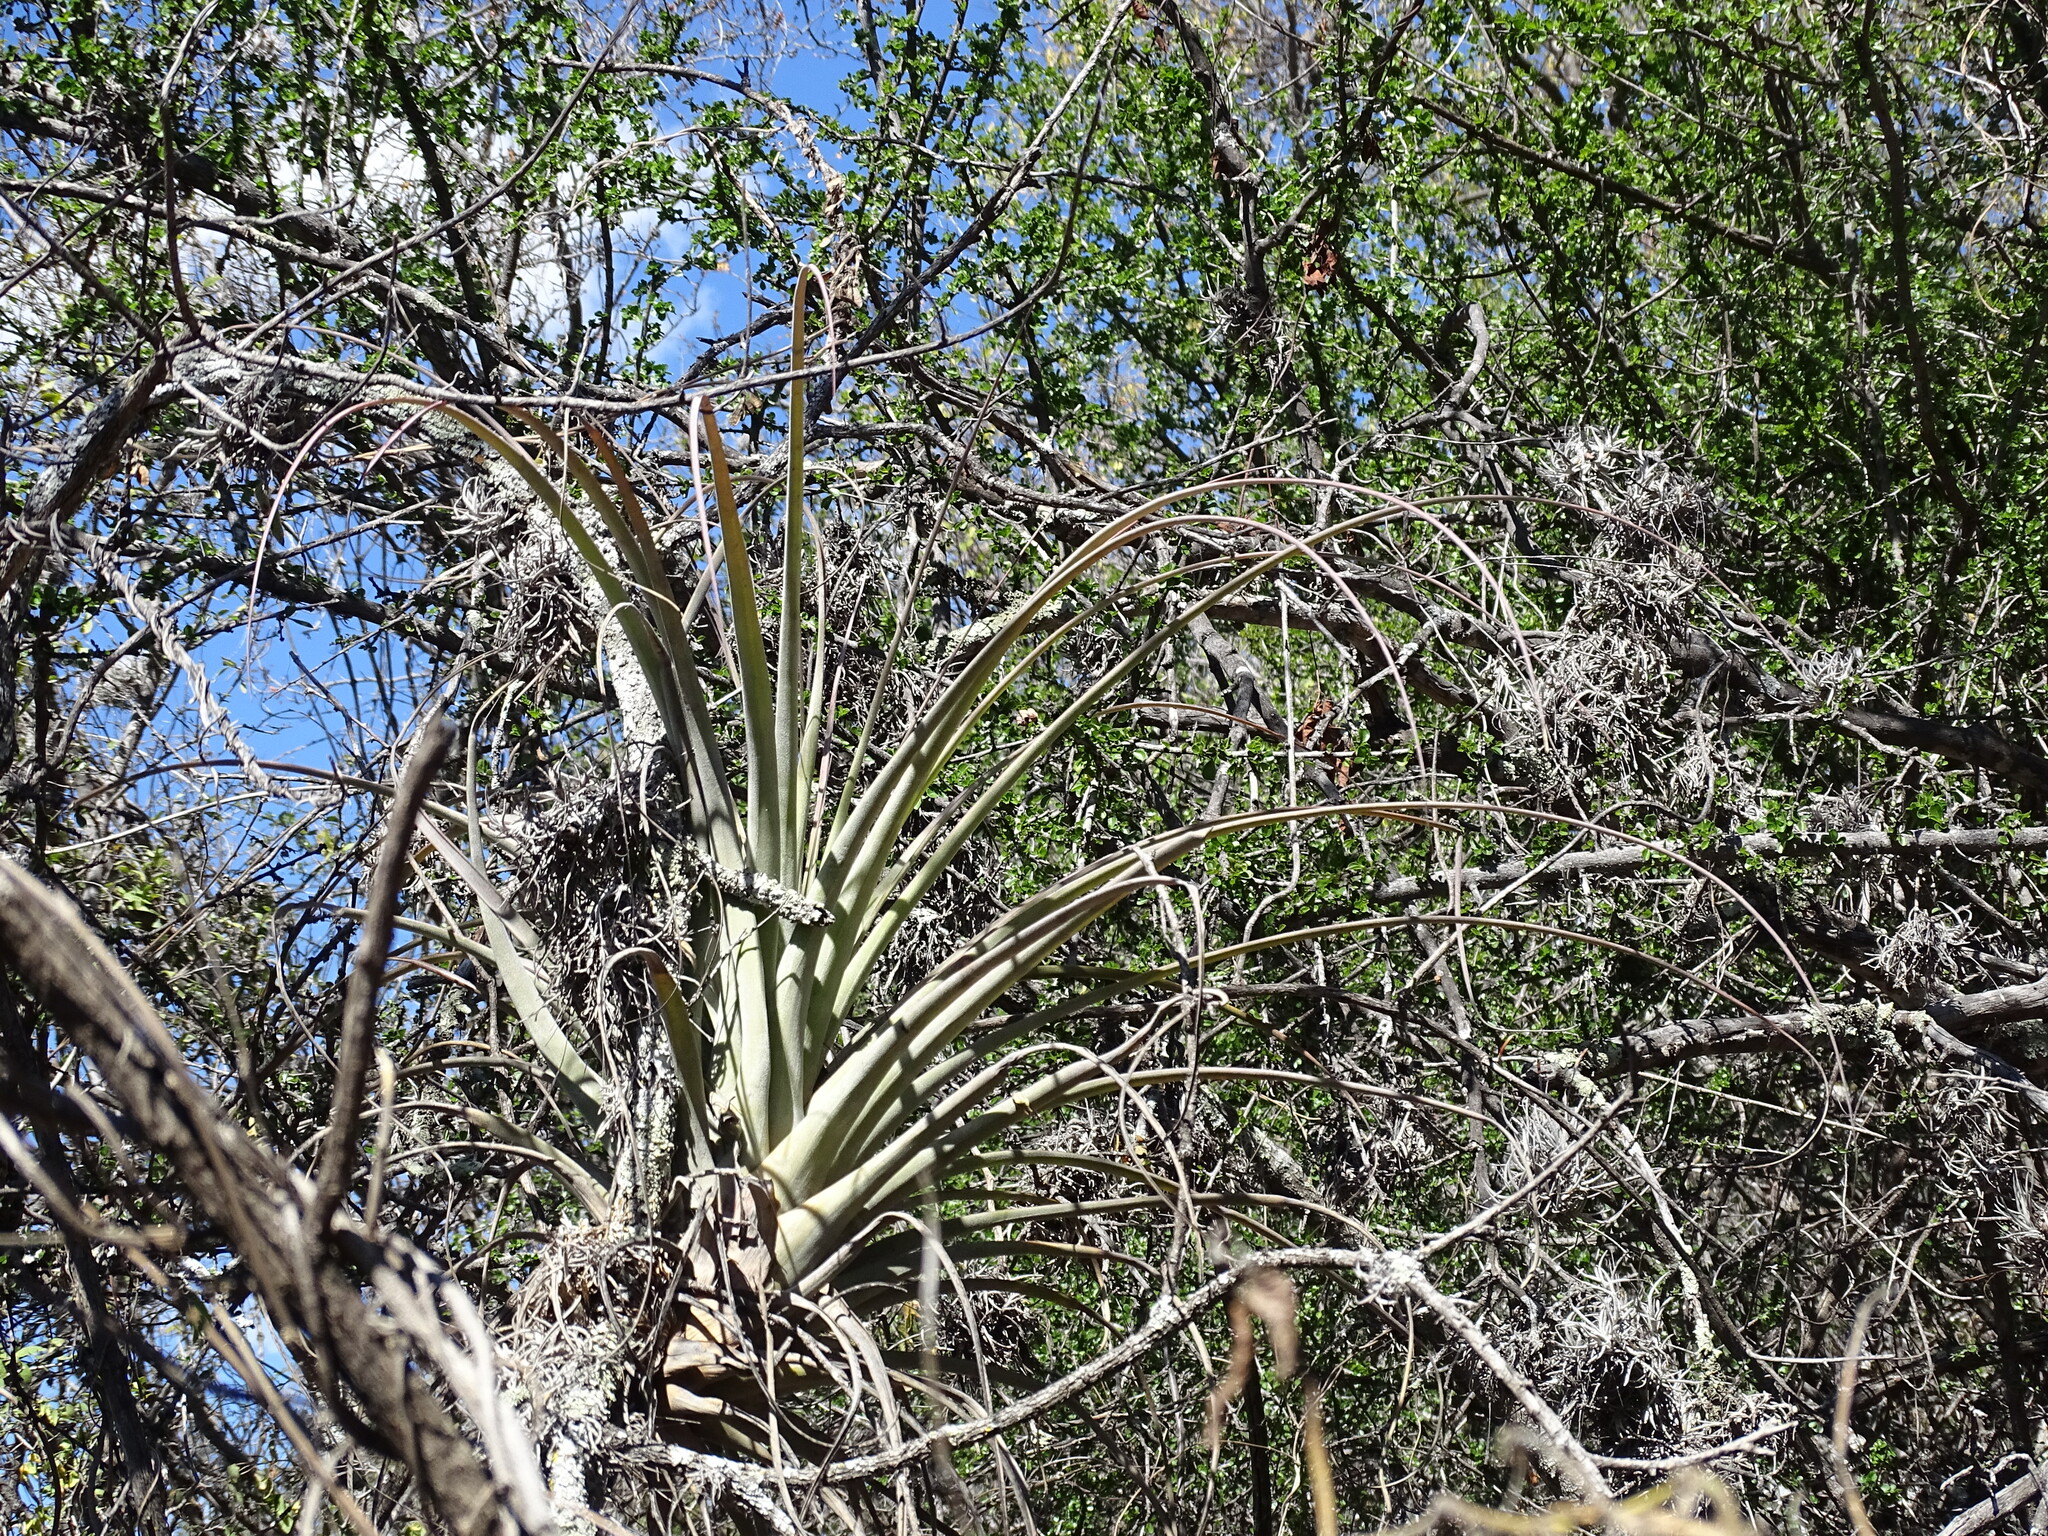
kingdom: Plantae
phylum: Tracheophyta
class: Liliopsida
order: Poales
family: Bromeliaceae
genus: Tillandsia
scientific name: Tillandsia dugesii
